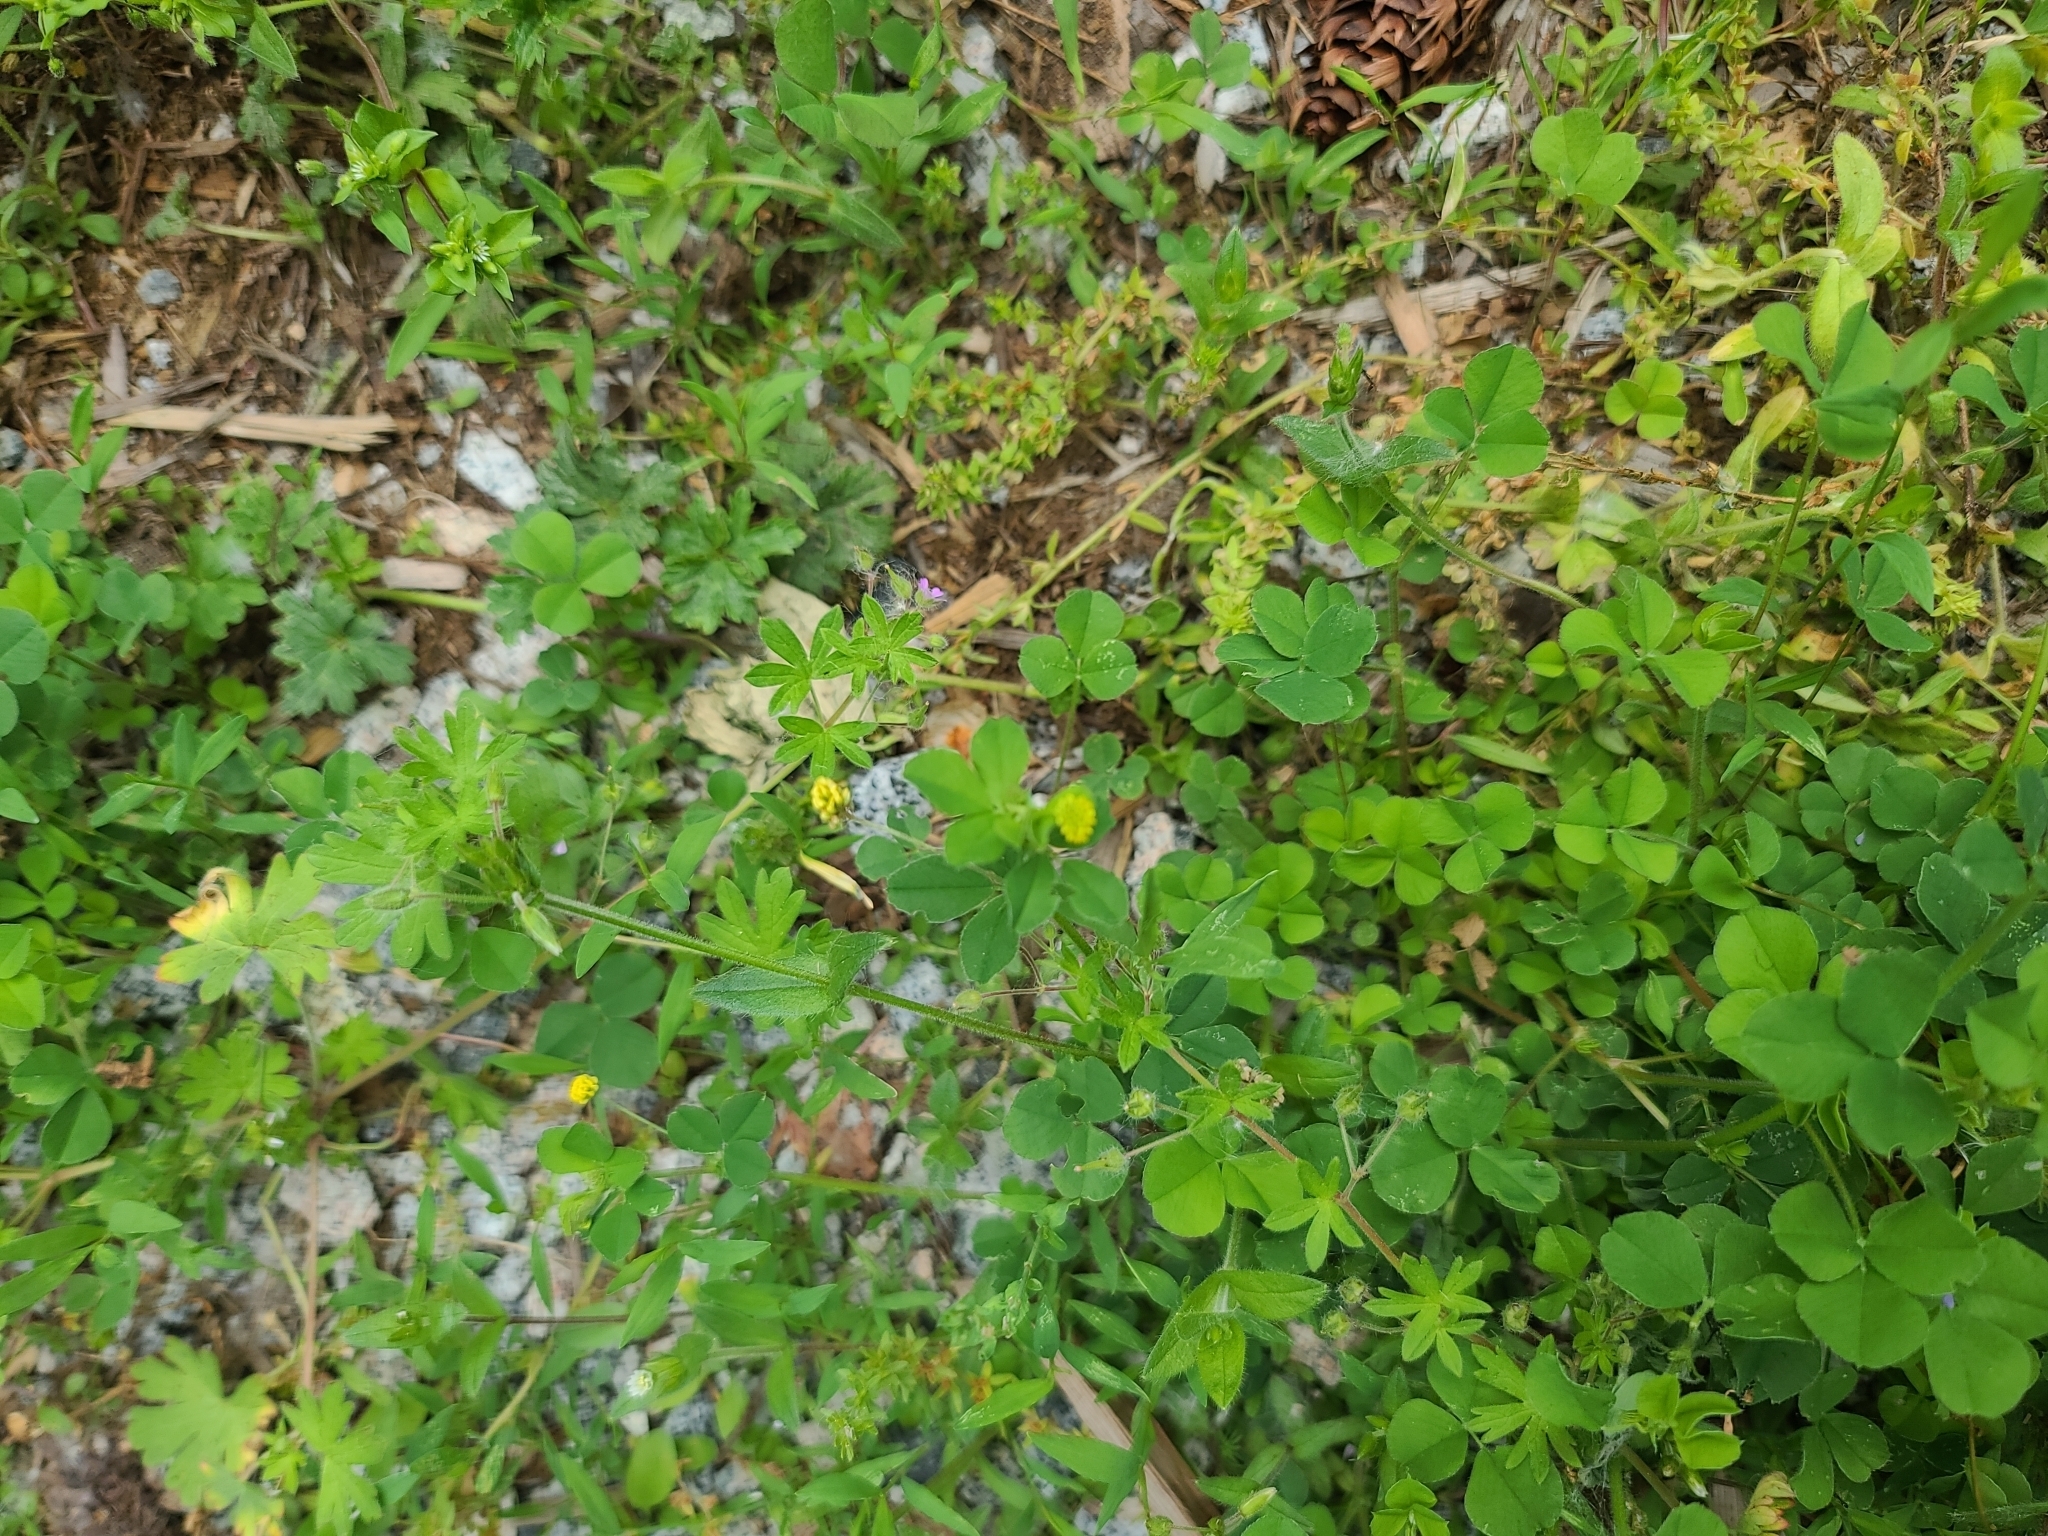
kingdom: Plantae
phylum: Tracheophyta
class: Magnoliopsida
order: Fabales
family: Fabaceae
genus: Medicago
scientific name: Medicago lupulina
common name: Black medick
